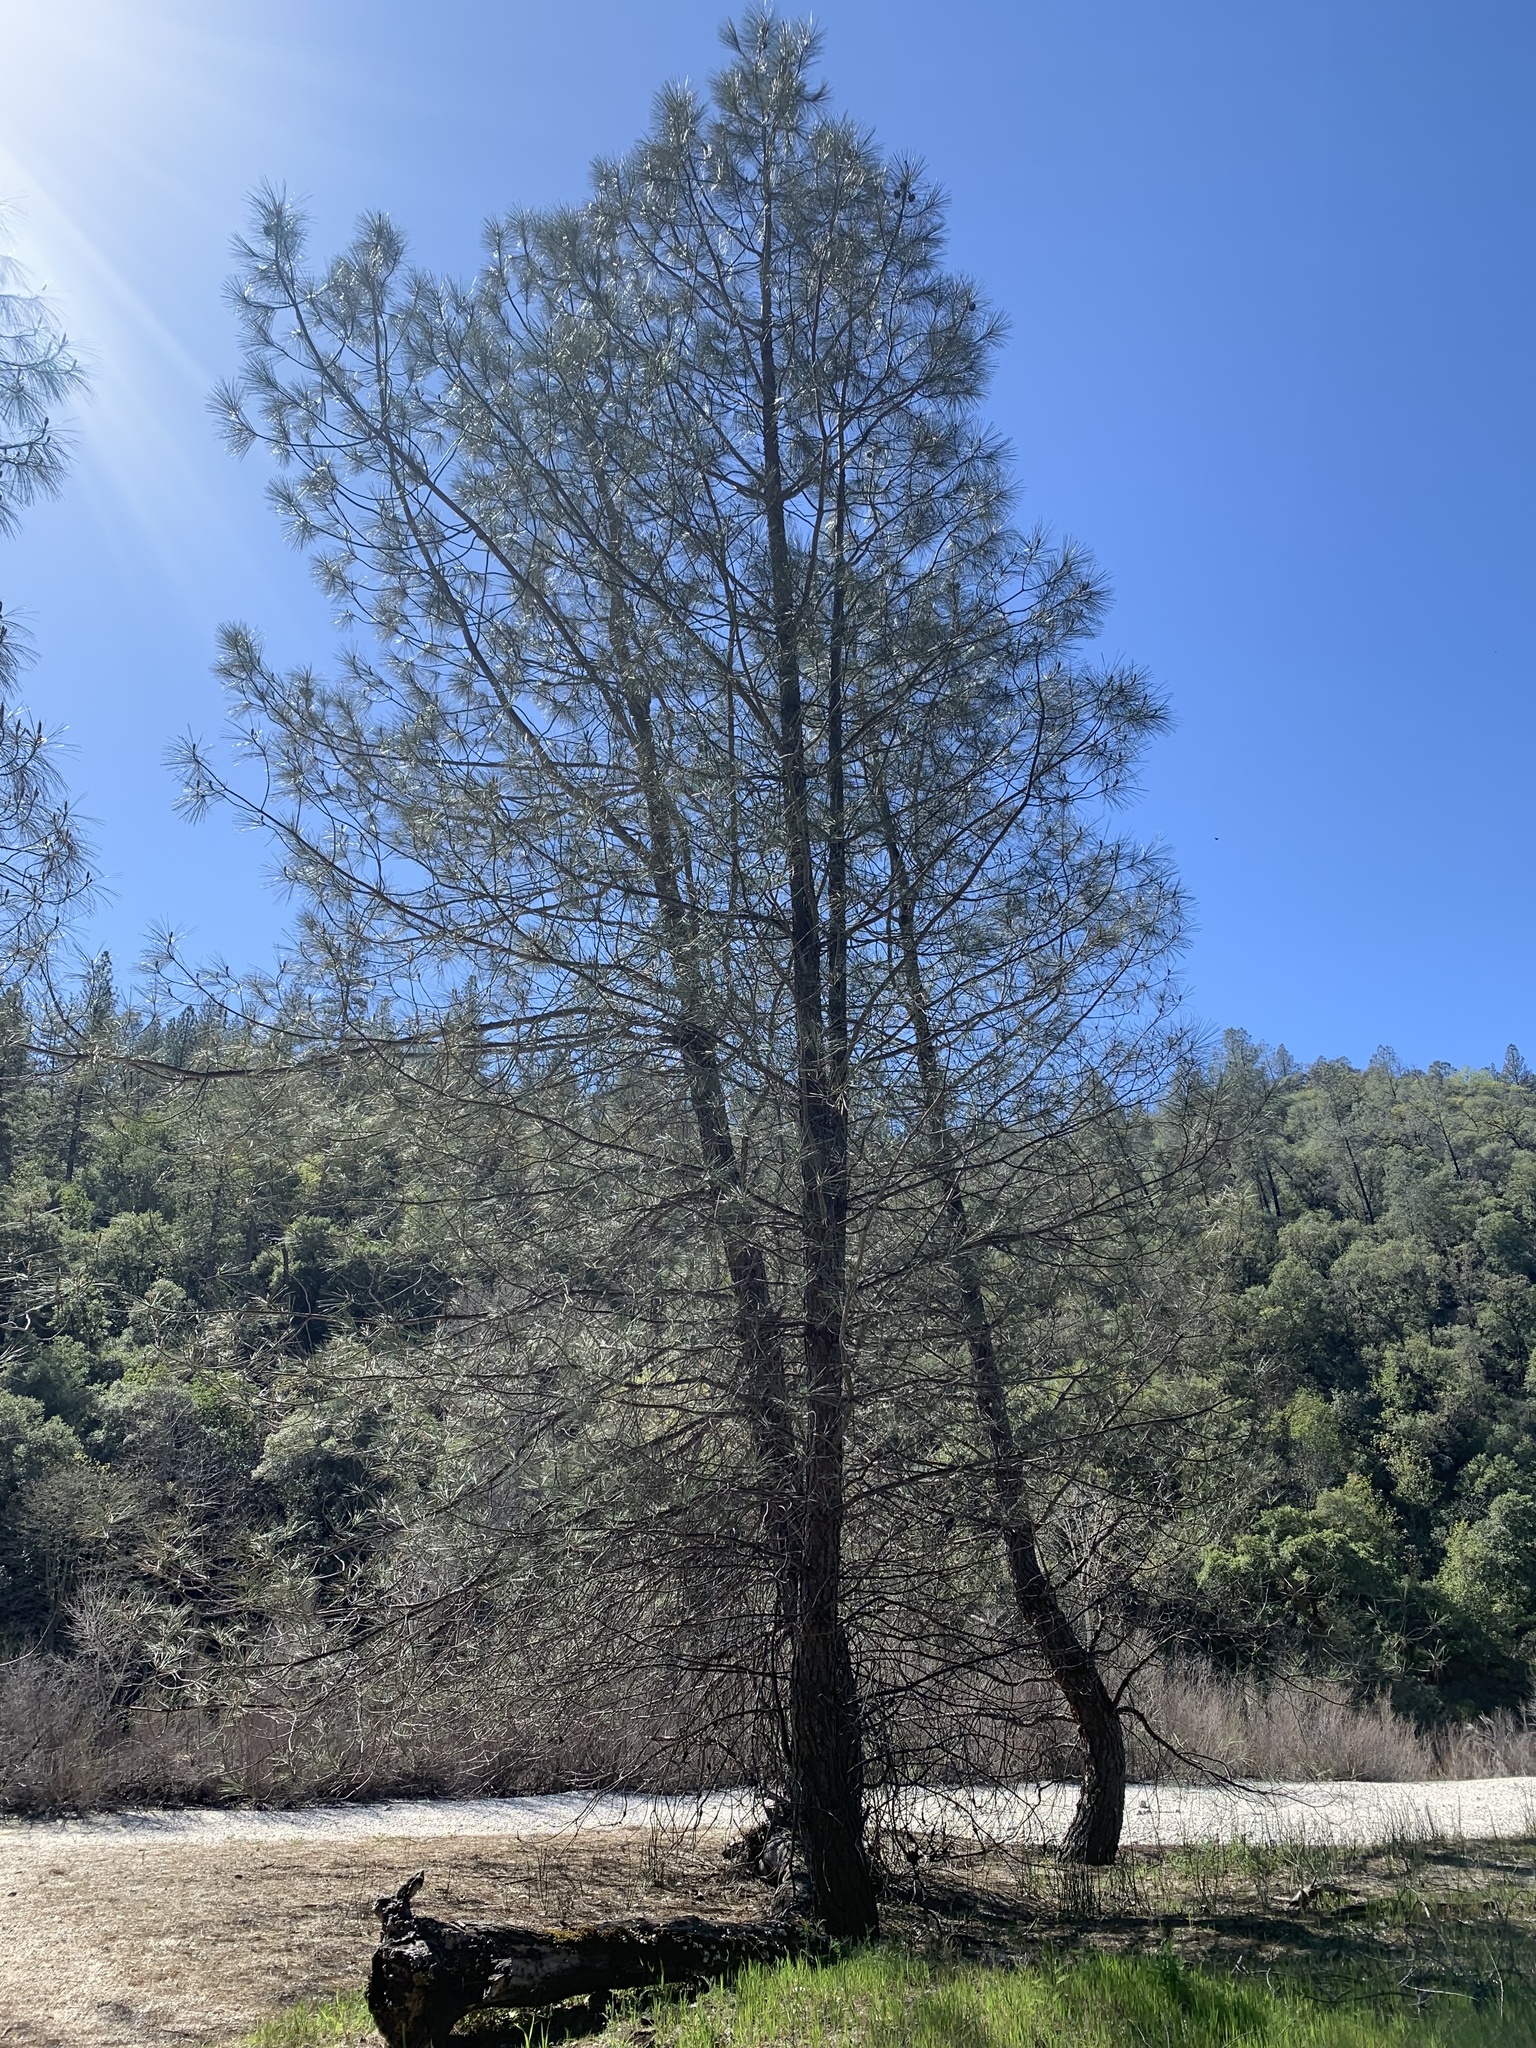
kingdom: Plantae
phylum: Tracheophyta
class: Pinopsida
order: Pinales
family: Pinaceae
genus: Pinus
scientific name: Pinus sabiniana
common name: Bull pine
